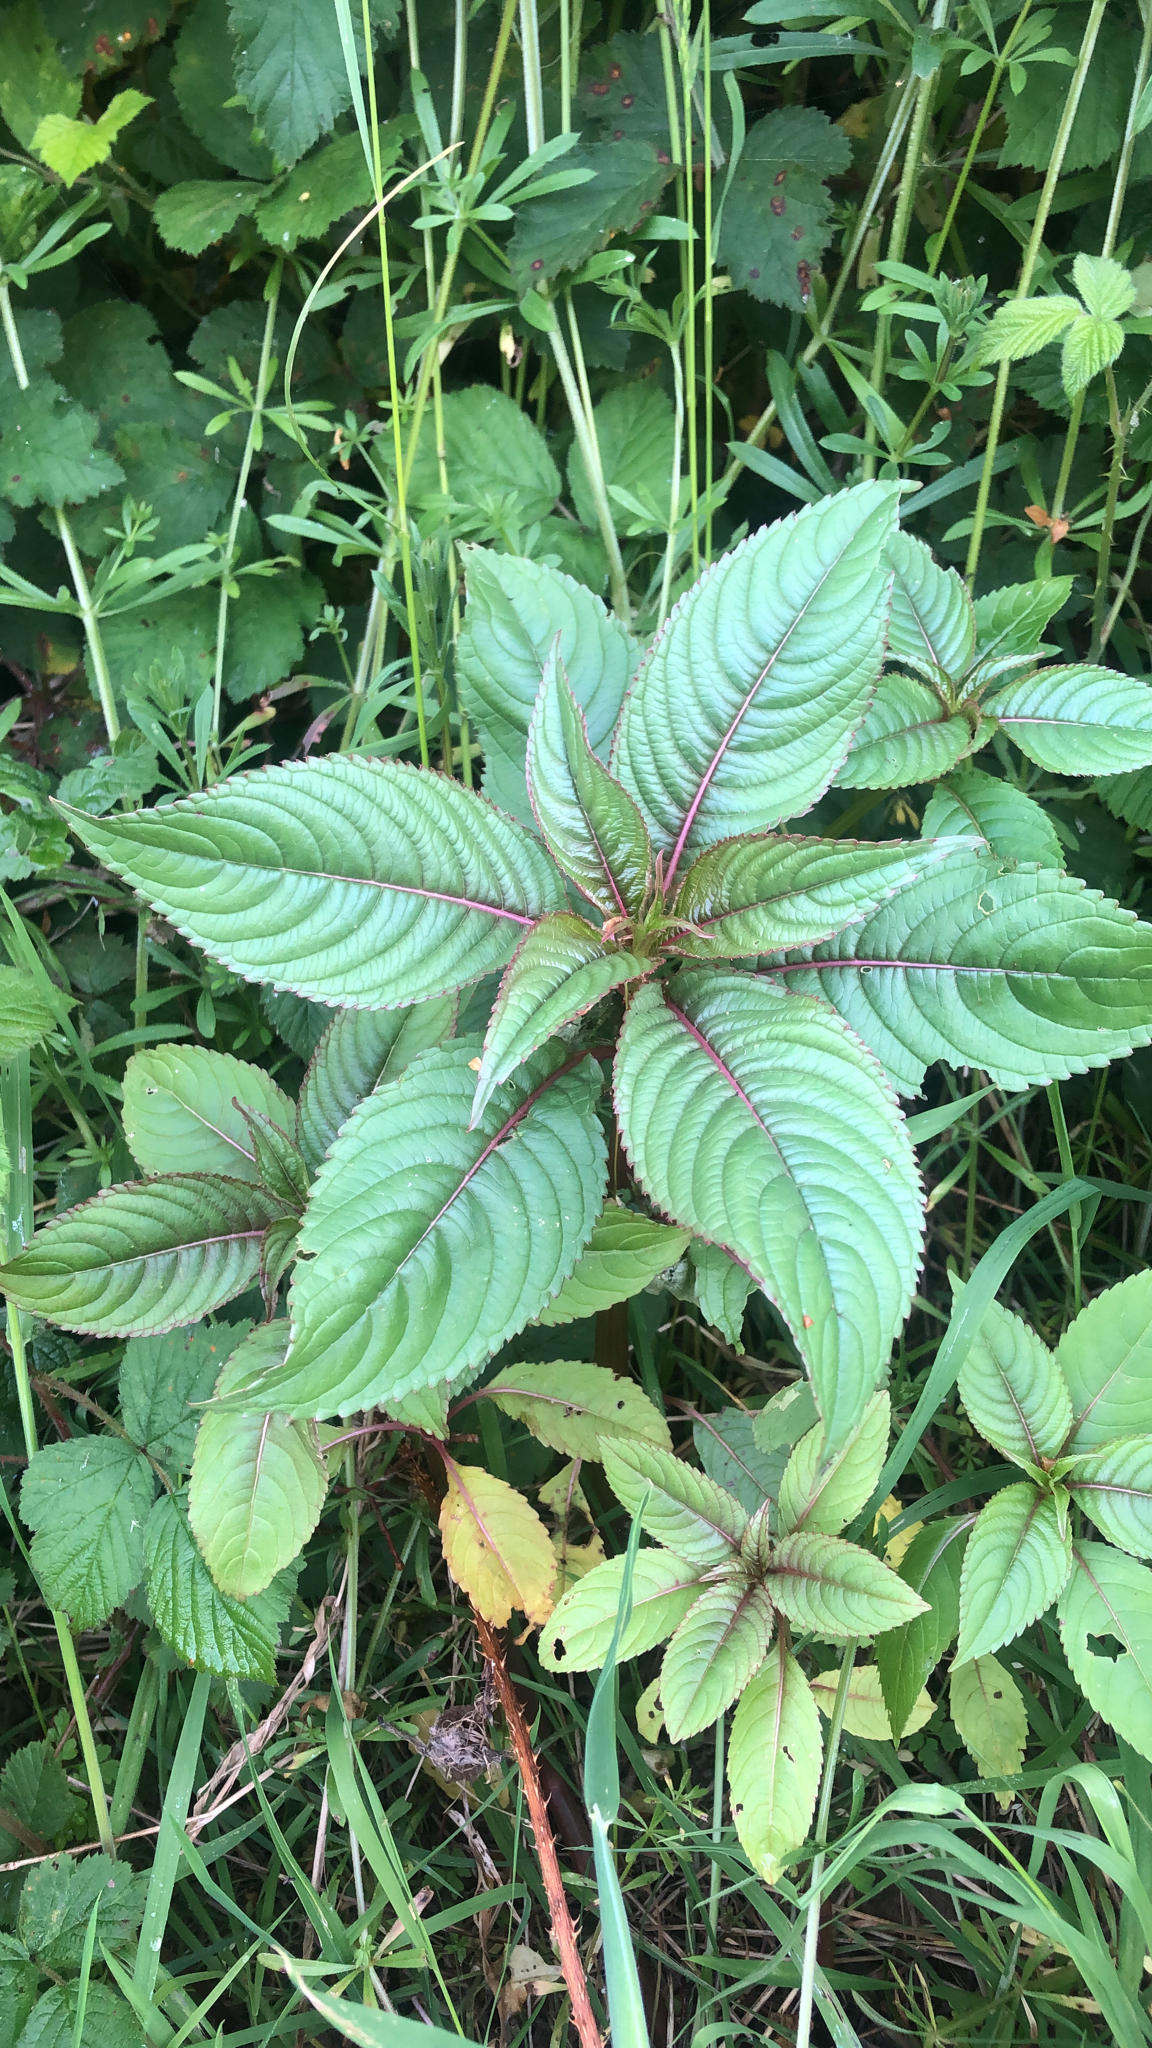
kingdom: Plantae
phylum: Tracheophyta
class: Magnoliopsida
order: Ericales
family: Balsaminaceae
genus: Impatiens
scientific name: Impatiens glandulifera
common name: Himalayan balsam
